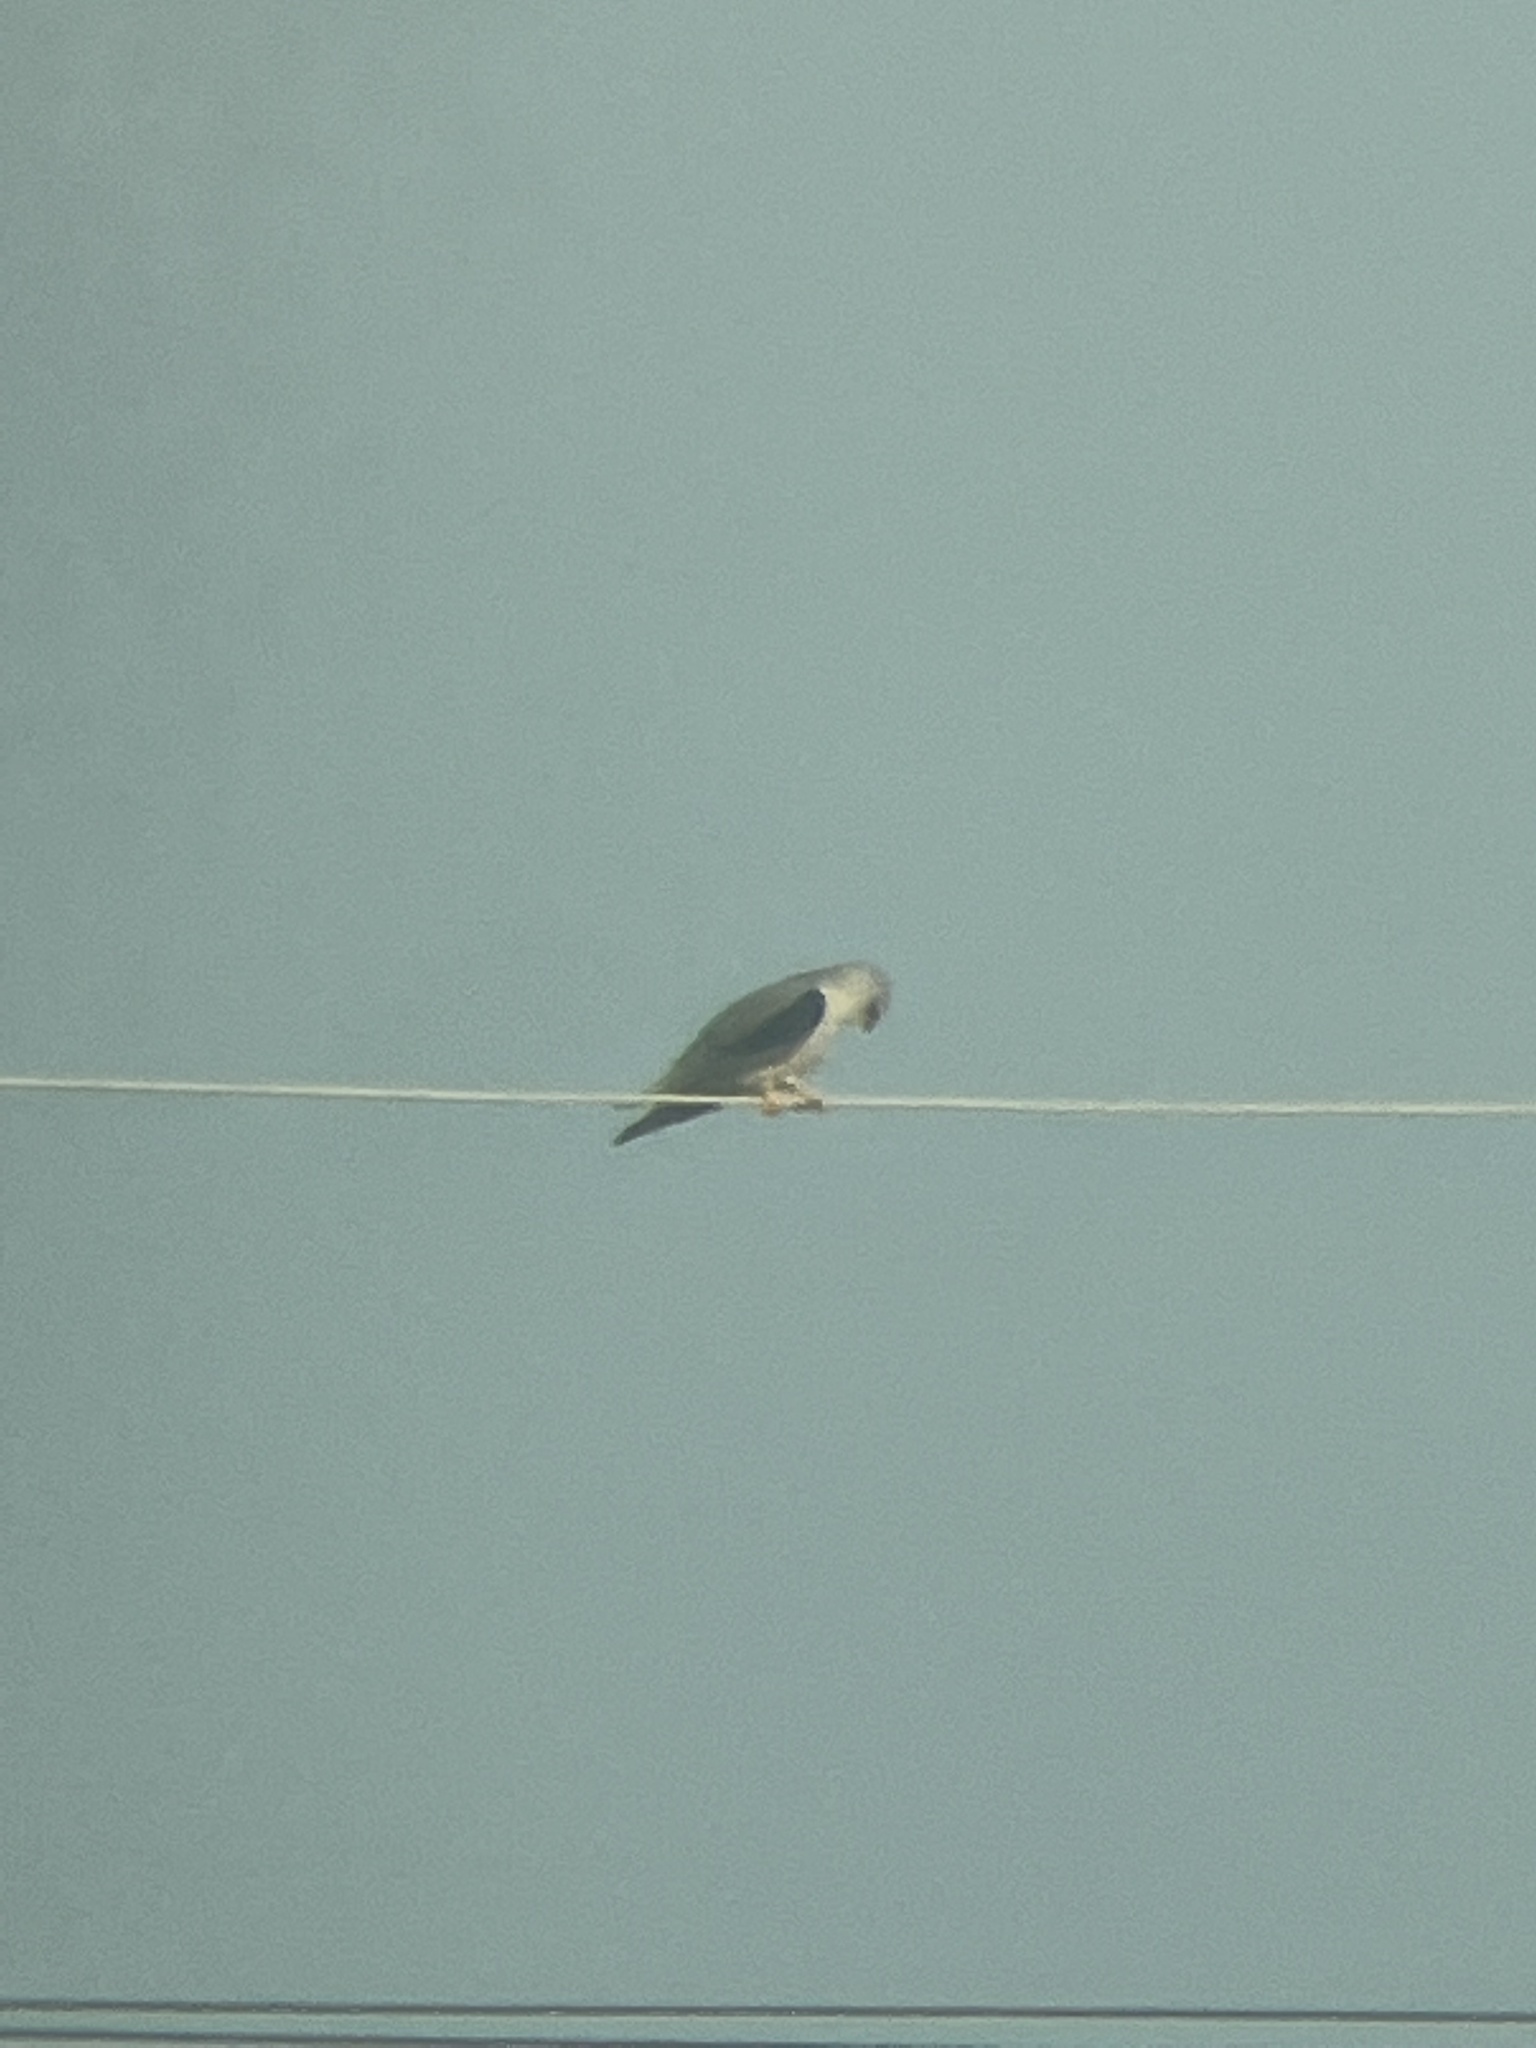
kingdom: Animalia
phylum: Chordata
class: Aves
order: Accipitriformes
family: Accipitridae
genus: Elanus
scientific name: Elanus caeruleus
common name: Black-winged kite
